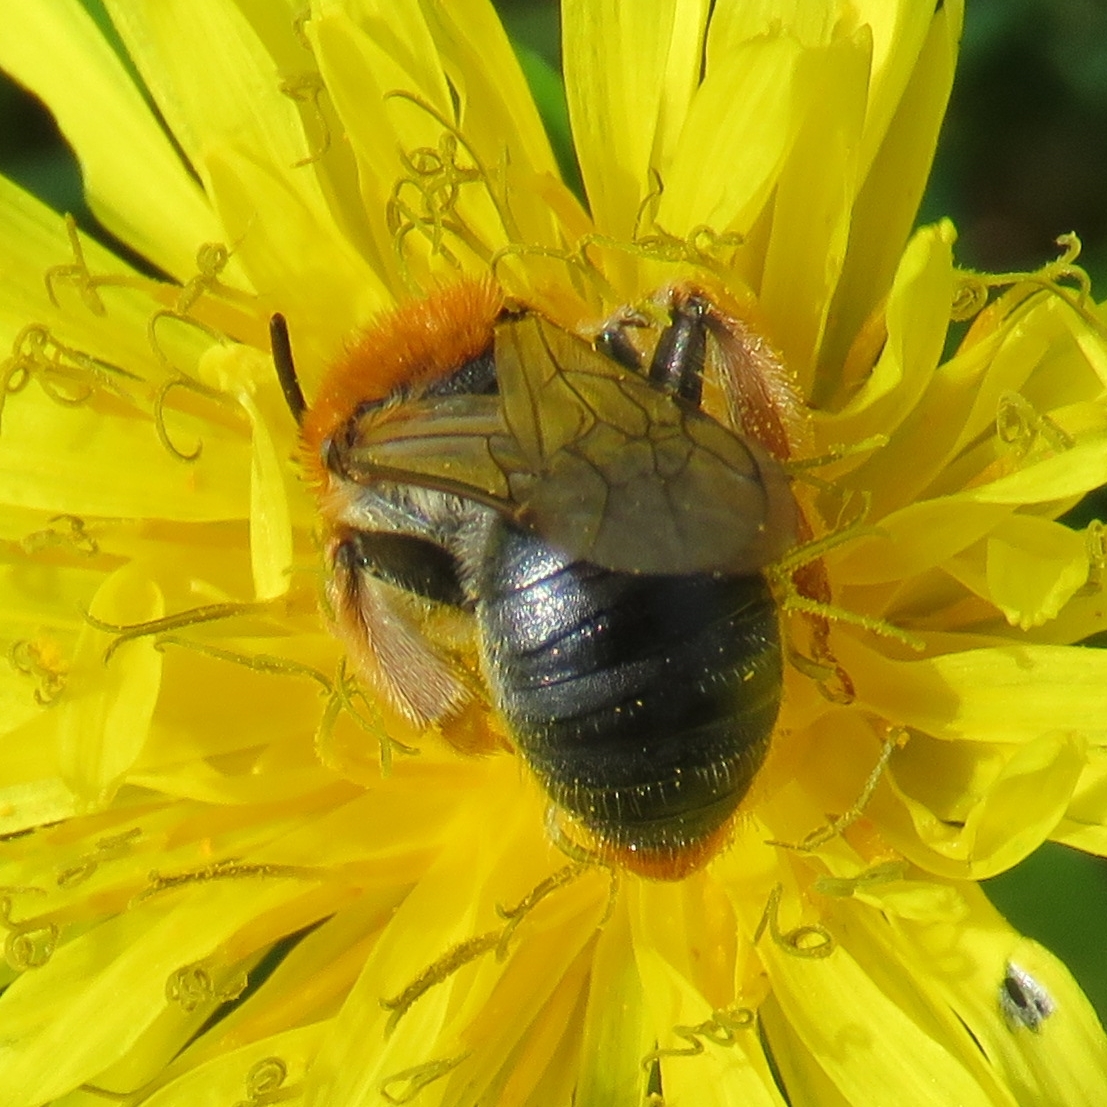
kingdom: Animalia
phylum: Arthropoda
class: Insecta
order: Hymenoptera
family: Andrenidae
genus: Andrena
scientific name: Andrena haemorrhoa
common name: Early mining bee
